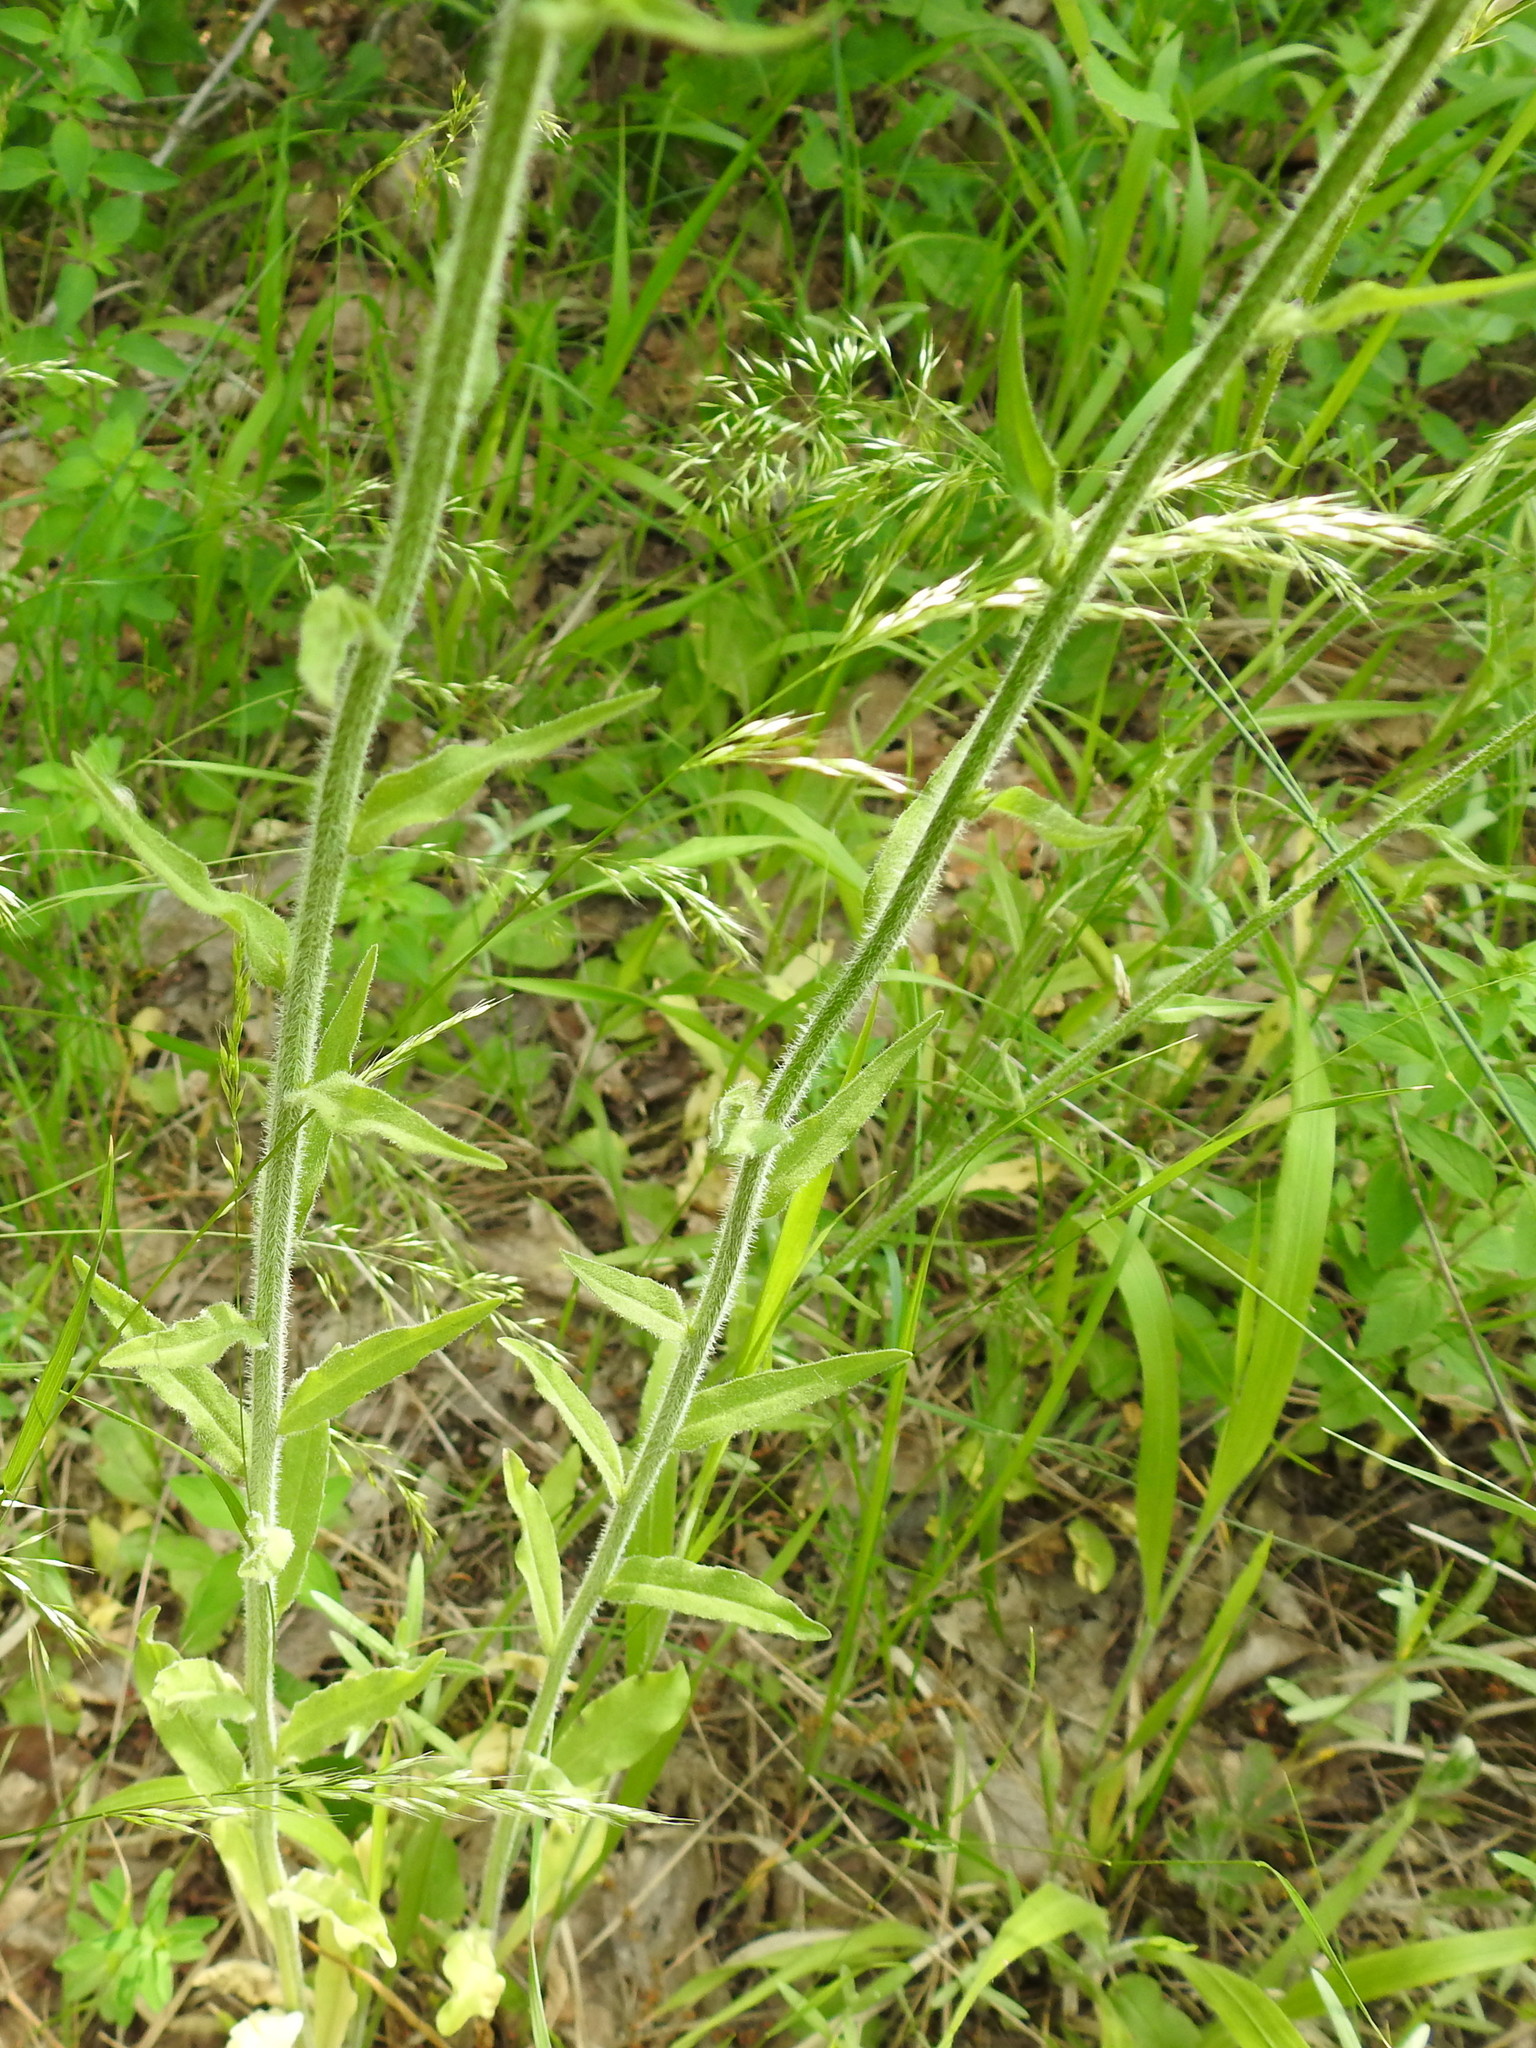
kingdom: Plantae
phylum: Tracheophyta
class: Magnoliopsida
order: Asterales
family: Campanulaceae
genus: Campanula
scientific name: Campanula rapunculus
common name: Rampion bellflower
